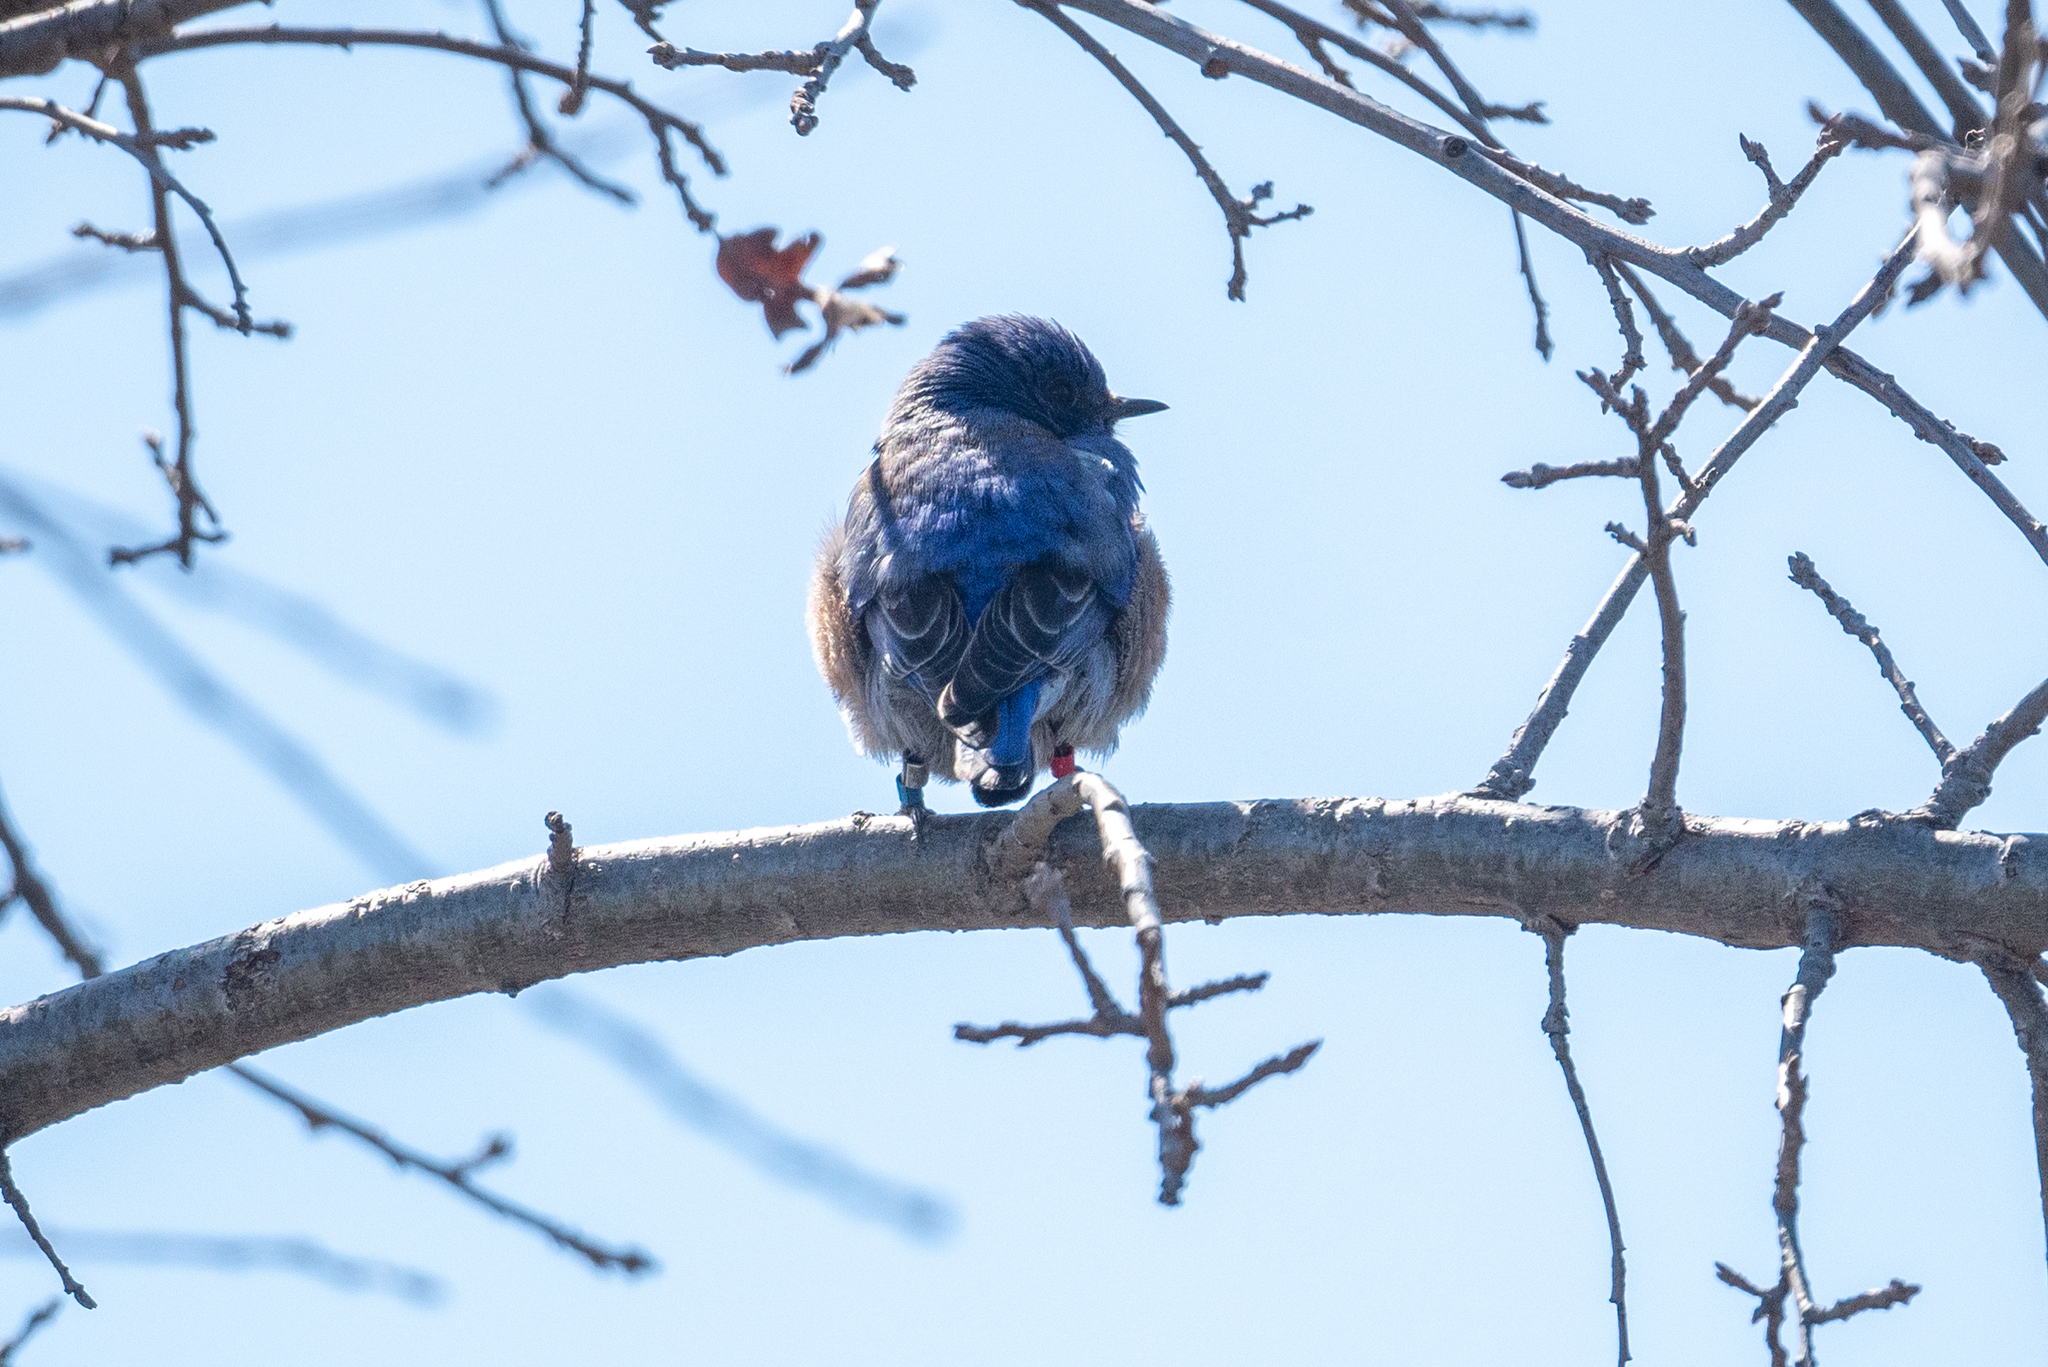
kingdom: Animalia
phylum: Chordata
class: Aves
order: Passeriformes
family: Turdidae
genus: Sialia
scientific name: Sialia mexicana
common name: Western bluebird
